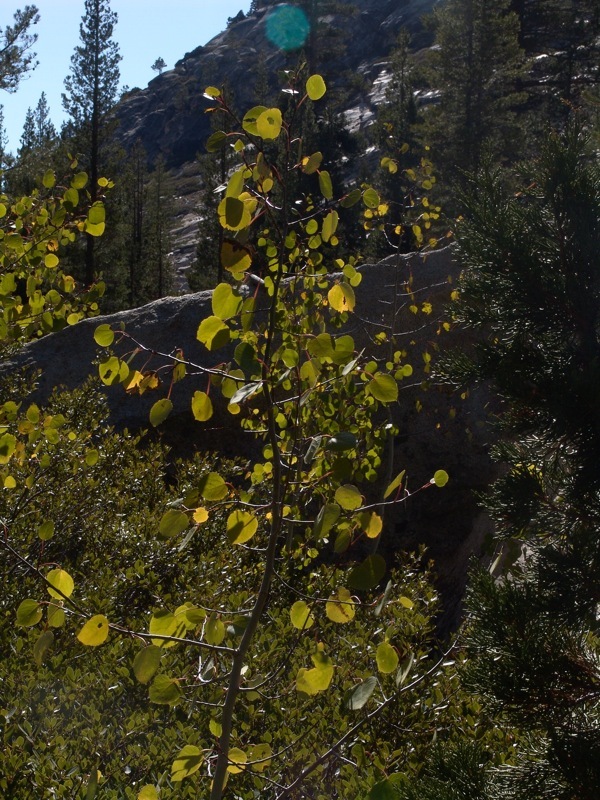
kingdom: Plantae
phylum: Tracheophyta
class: Magnoliopsida
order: Malpighiales
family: Salicaceae
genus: Populus
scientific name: Populus tremuloides
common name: Quaking aspen
